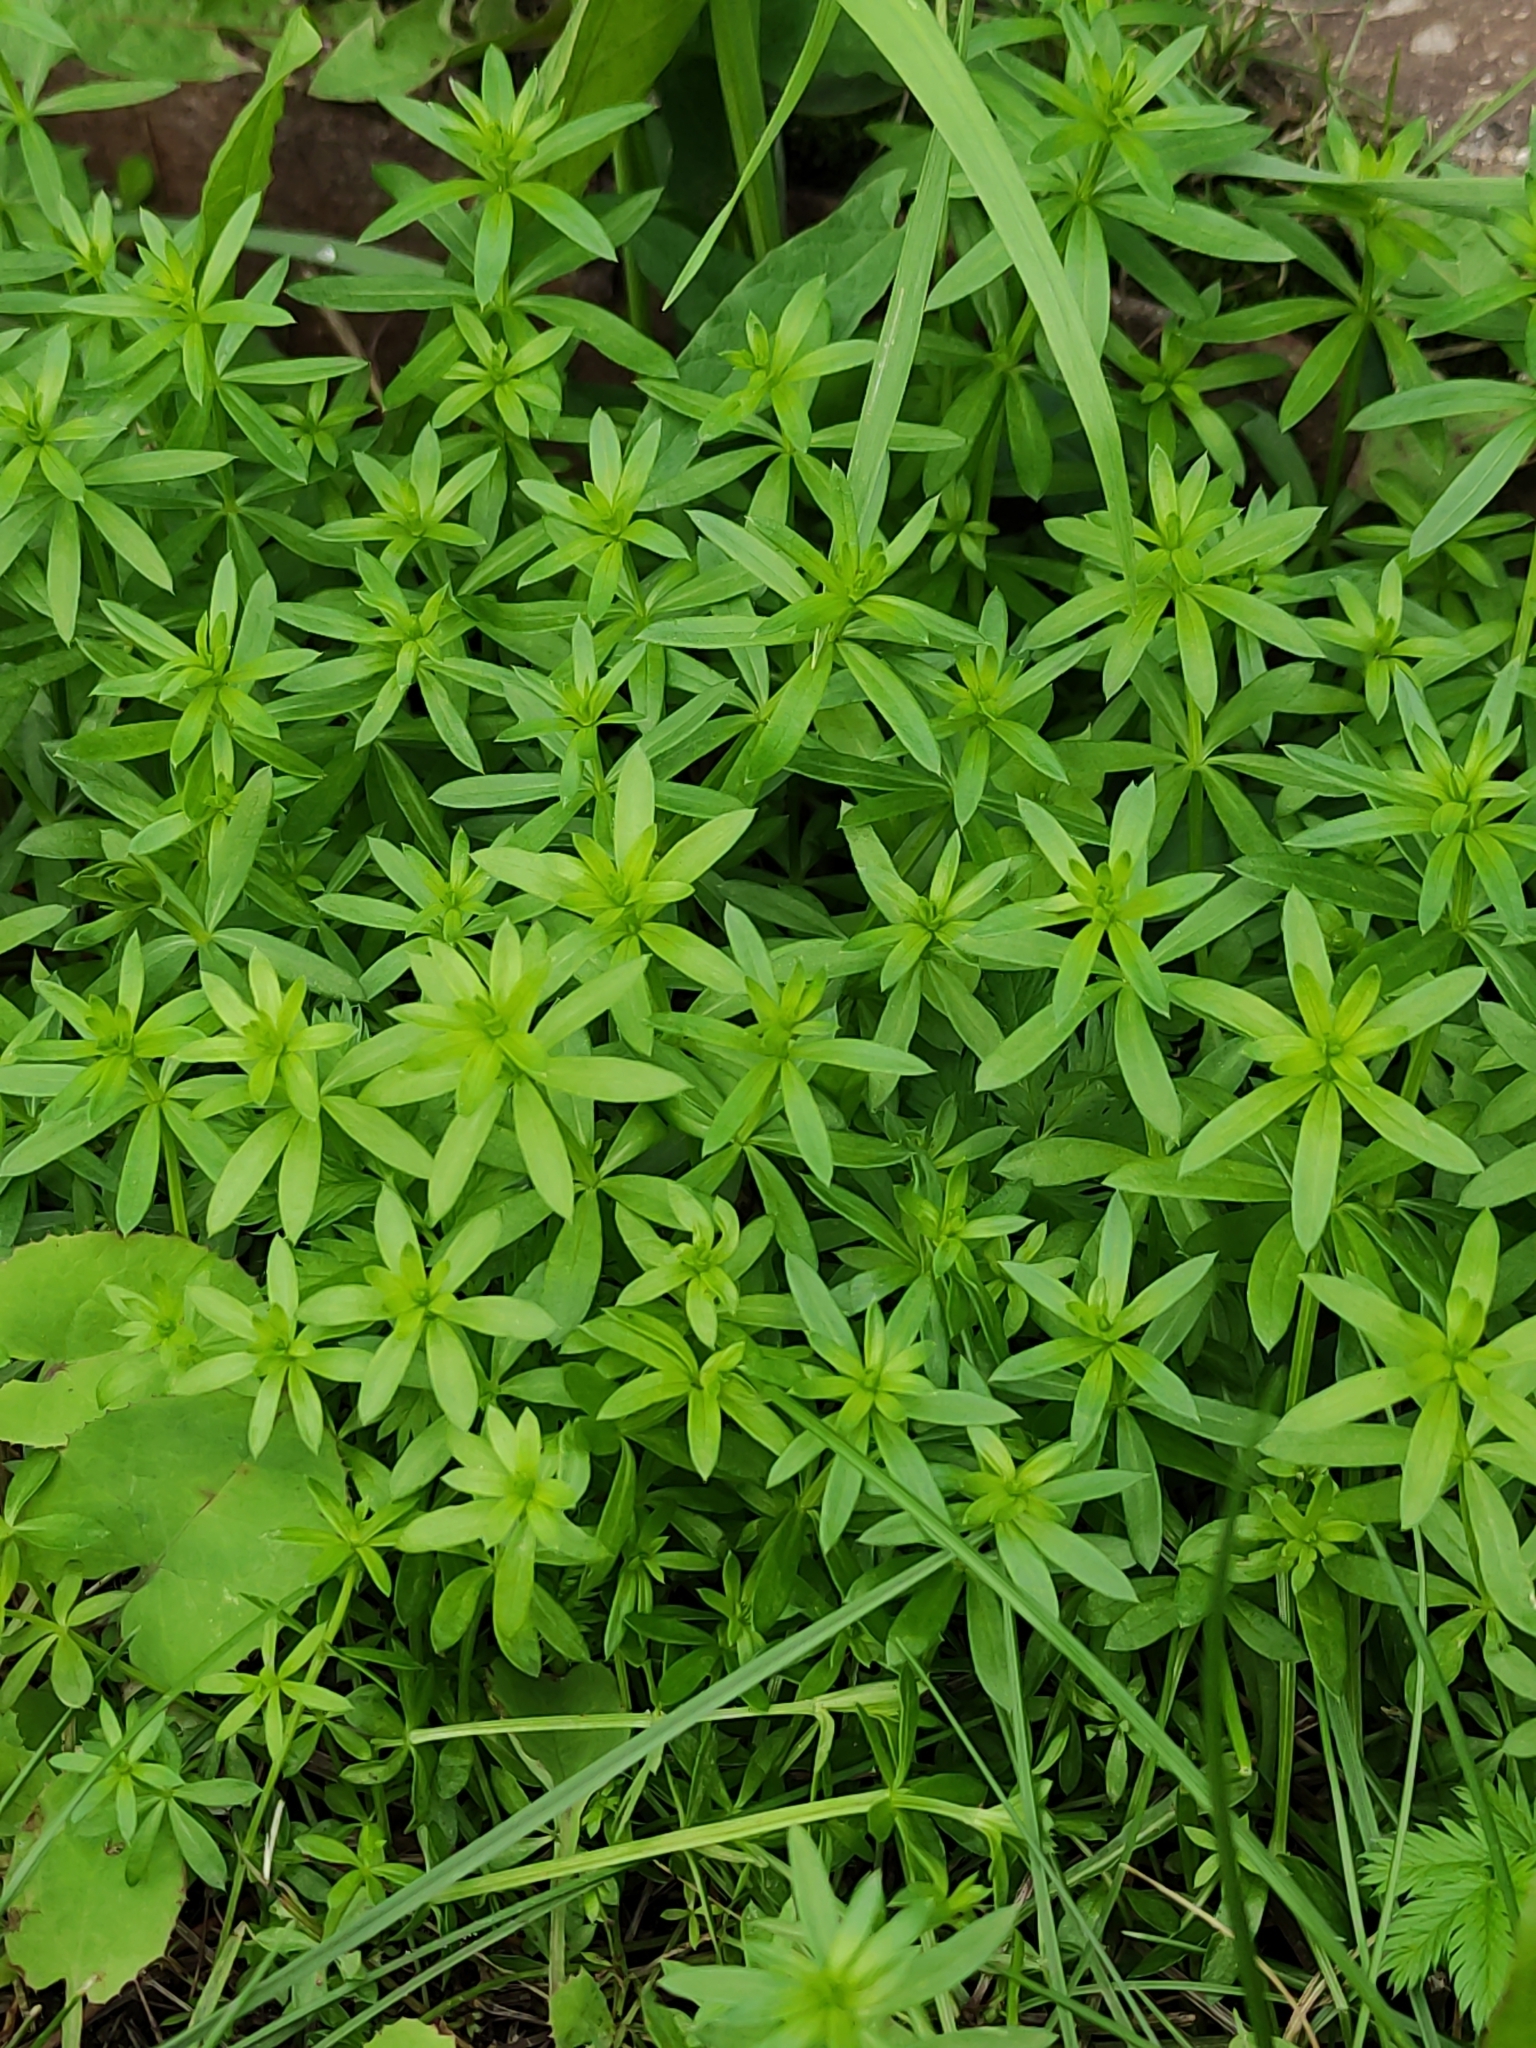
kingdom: Plantae
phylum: Tracheophyta
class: Magnoliopsida
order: Gentianales
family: Rubiaceae
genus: Galium
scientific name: Galium mollugo
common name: Hedge bedstraw
